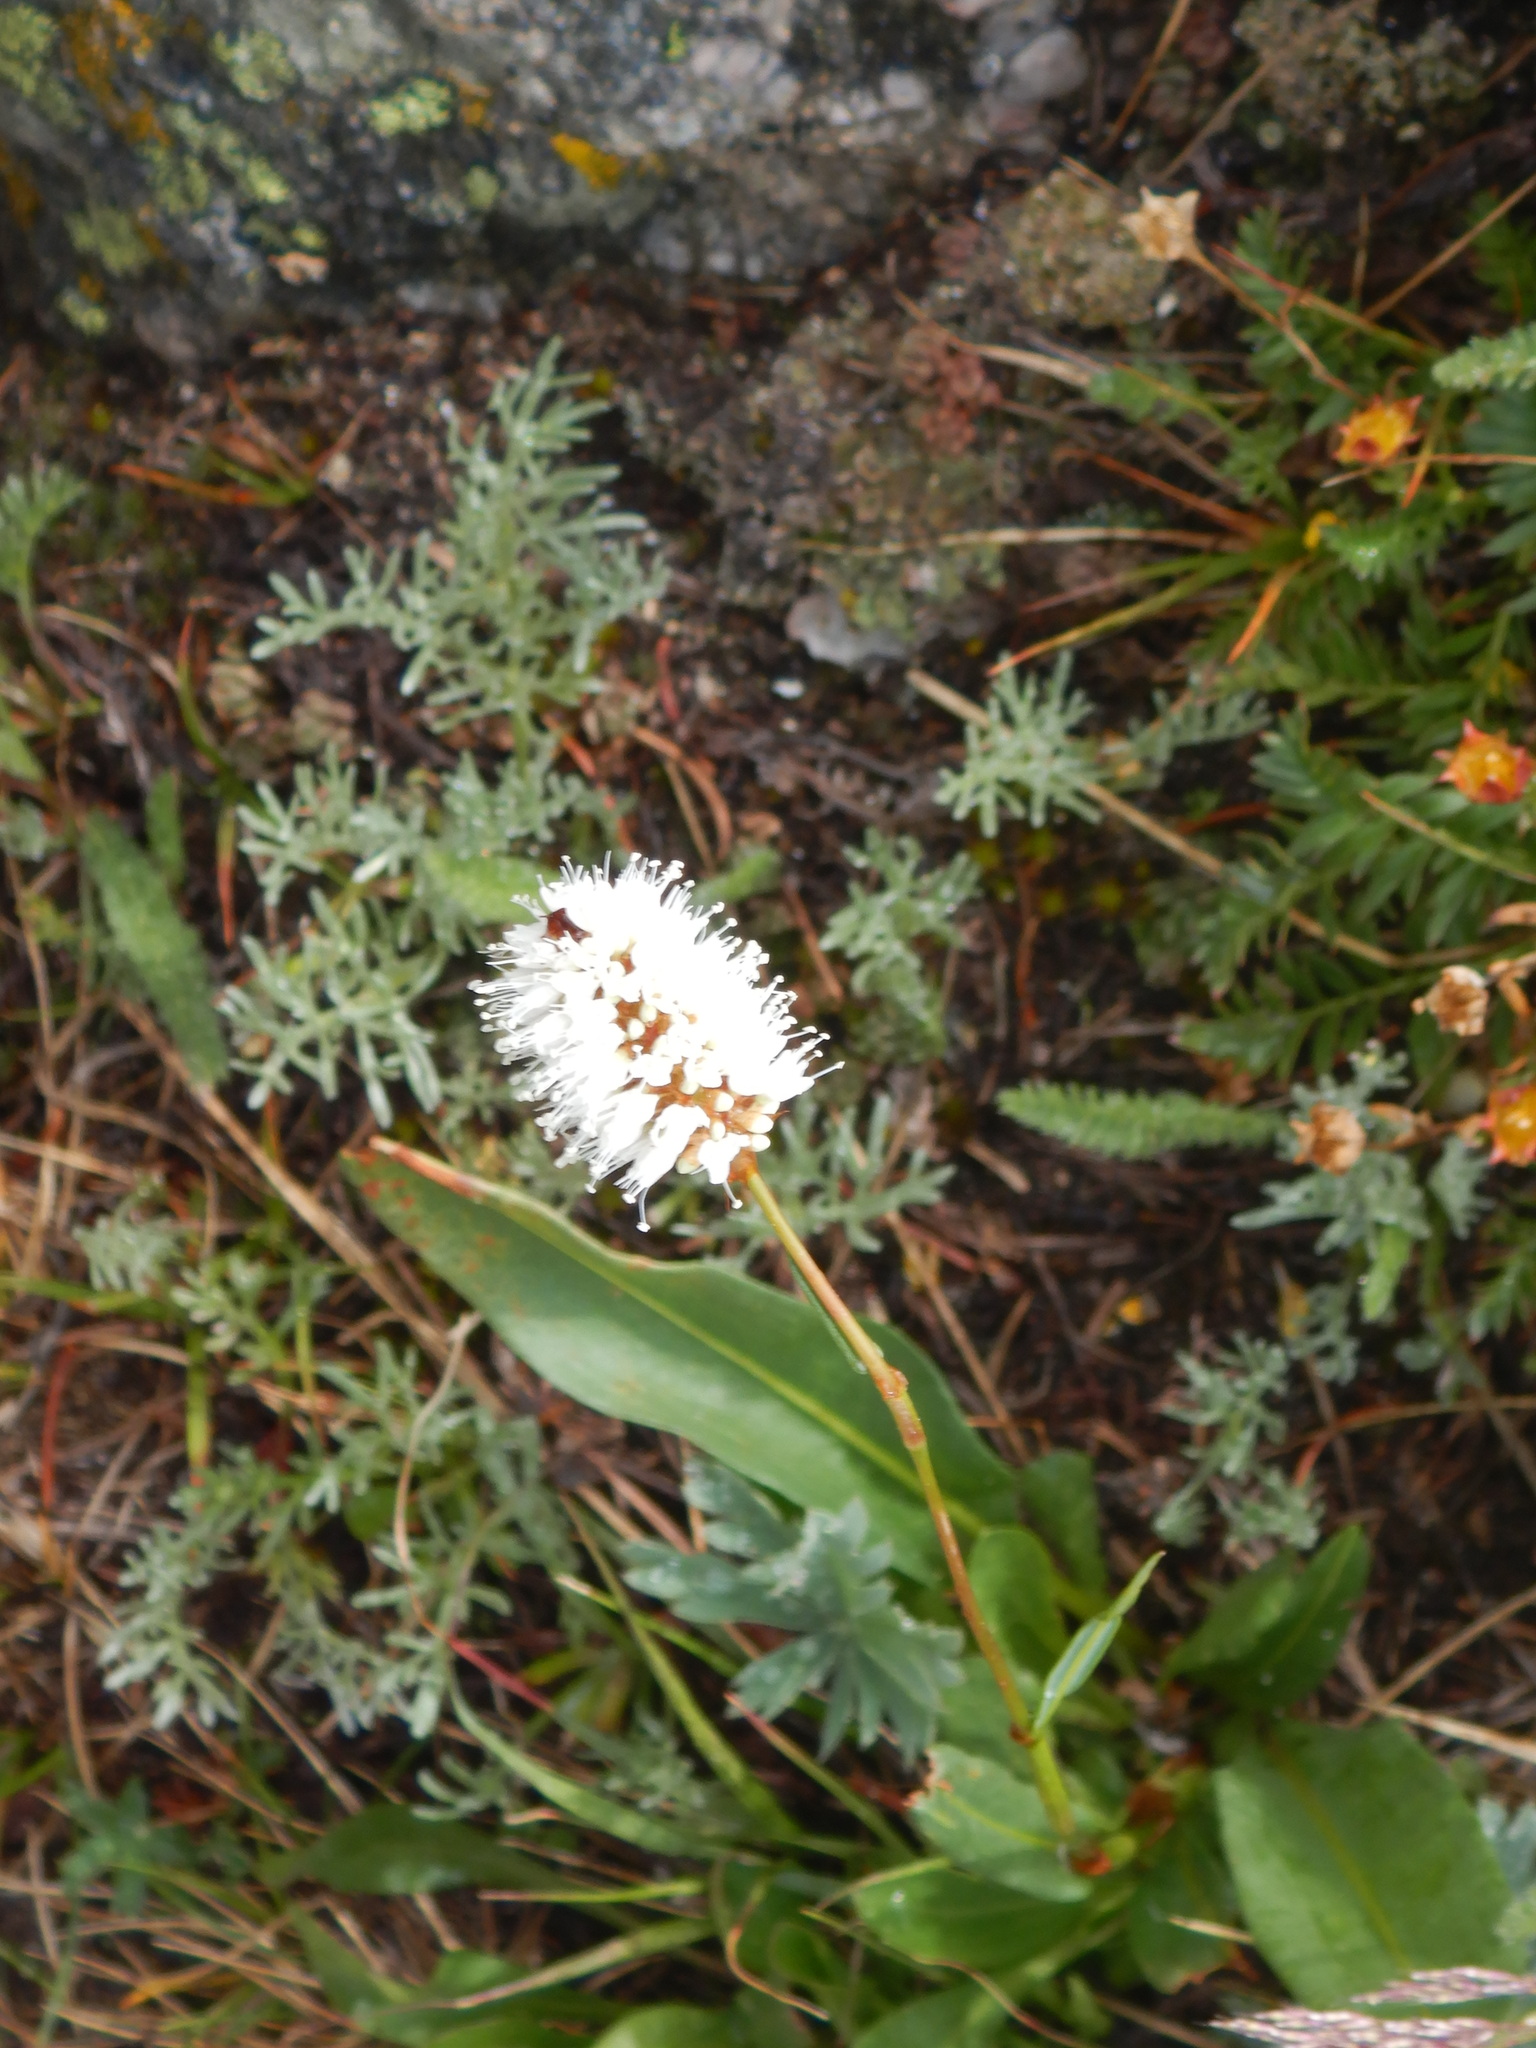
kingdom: Plantae
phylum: Tracheophyta
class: Magnoliopsida
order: Caryophyllales
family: Polygonaceae
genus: Bistorta
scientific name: Bistorta bistortoides
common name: American bistort
